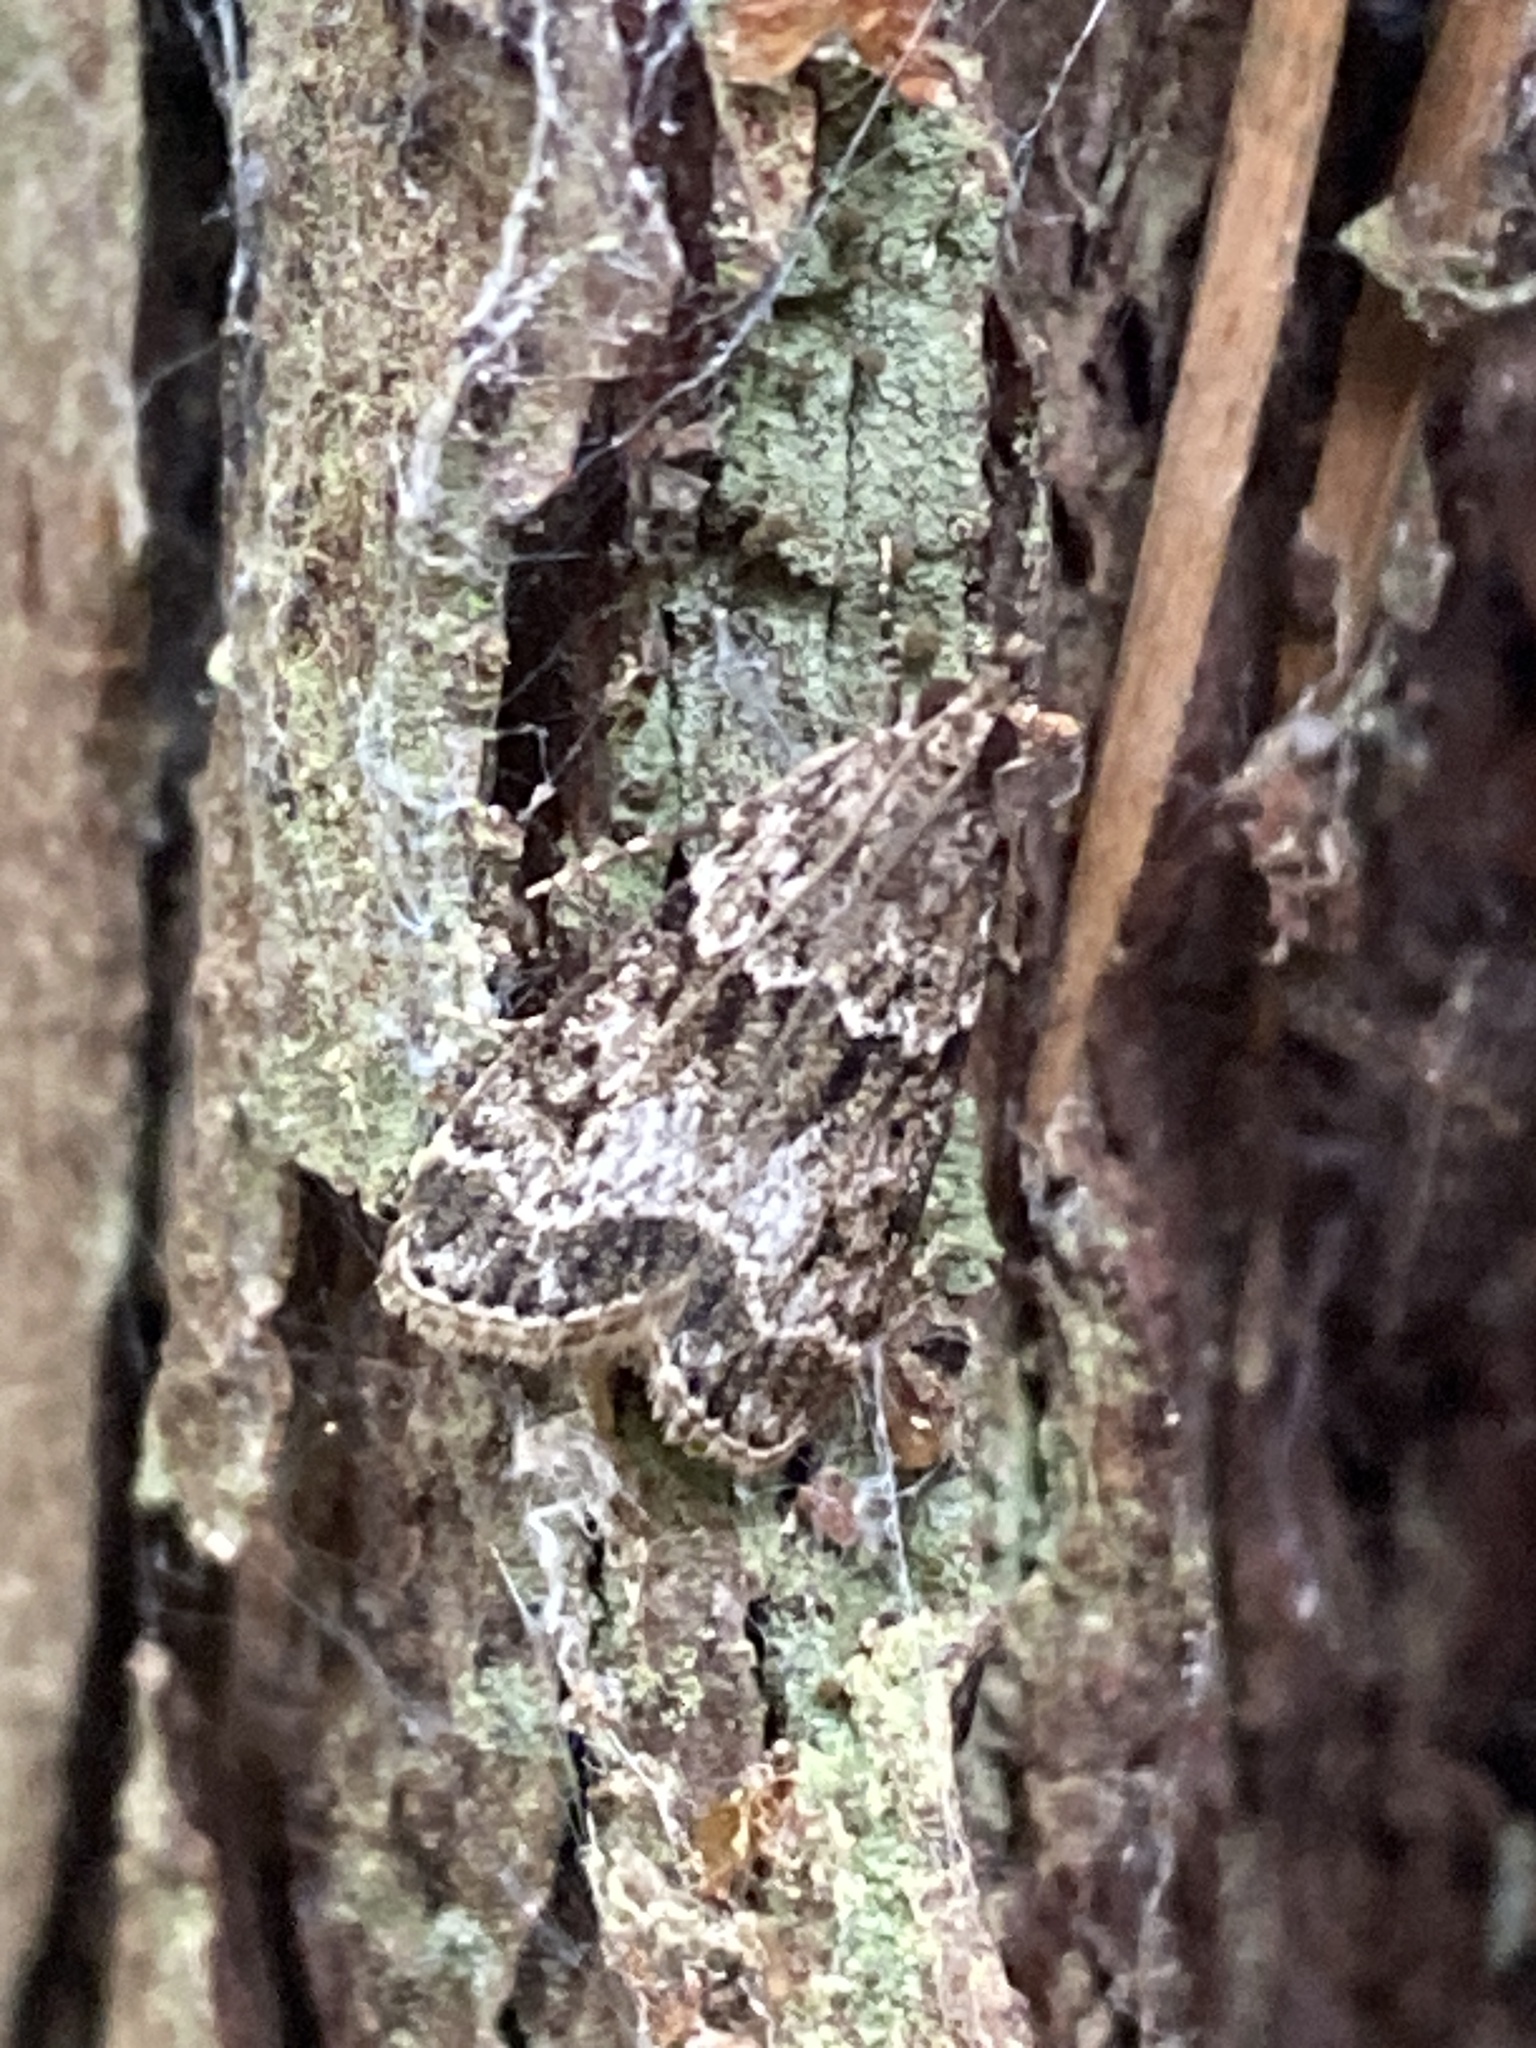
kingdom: Animalia
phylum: Arthropoda
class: Insecta
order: Lepidoptera
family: Crambidae
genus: Eudonia
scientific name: Eudonia mercurella
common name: Small grey
